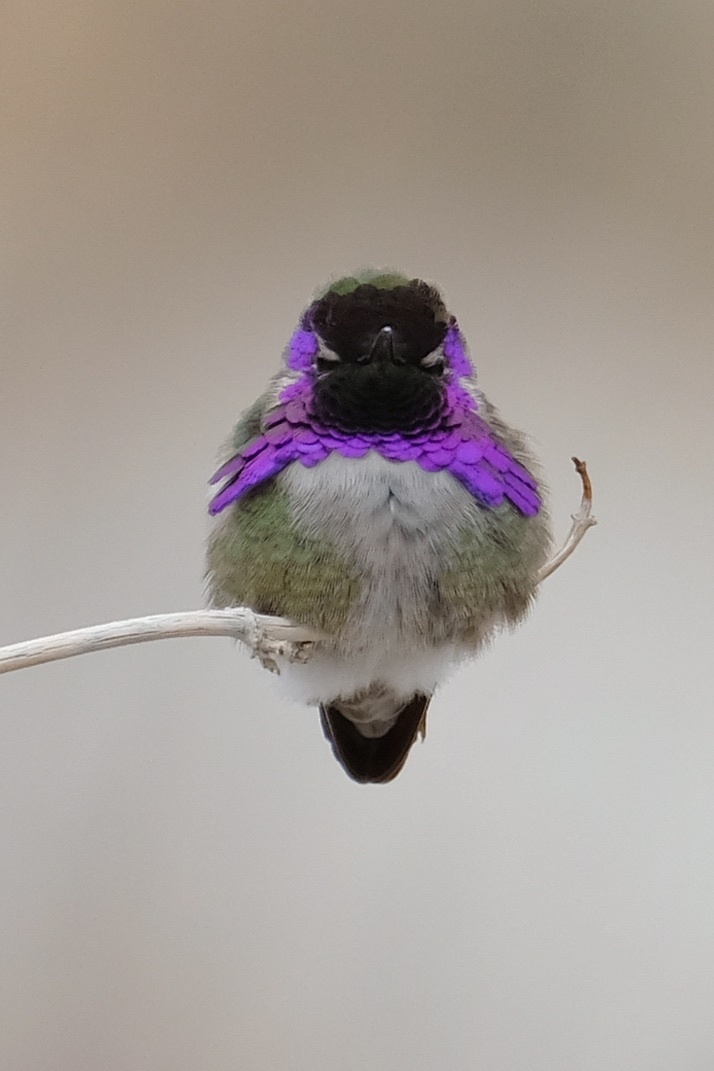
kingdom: Animalia
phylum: Chordata
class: Aves
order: Apodiformes
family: Trochilidae
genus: Calypte
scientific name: Calypte costae
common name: Costa's hummingbird
